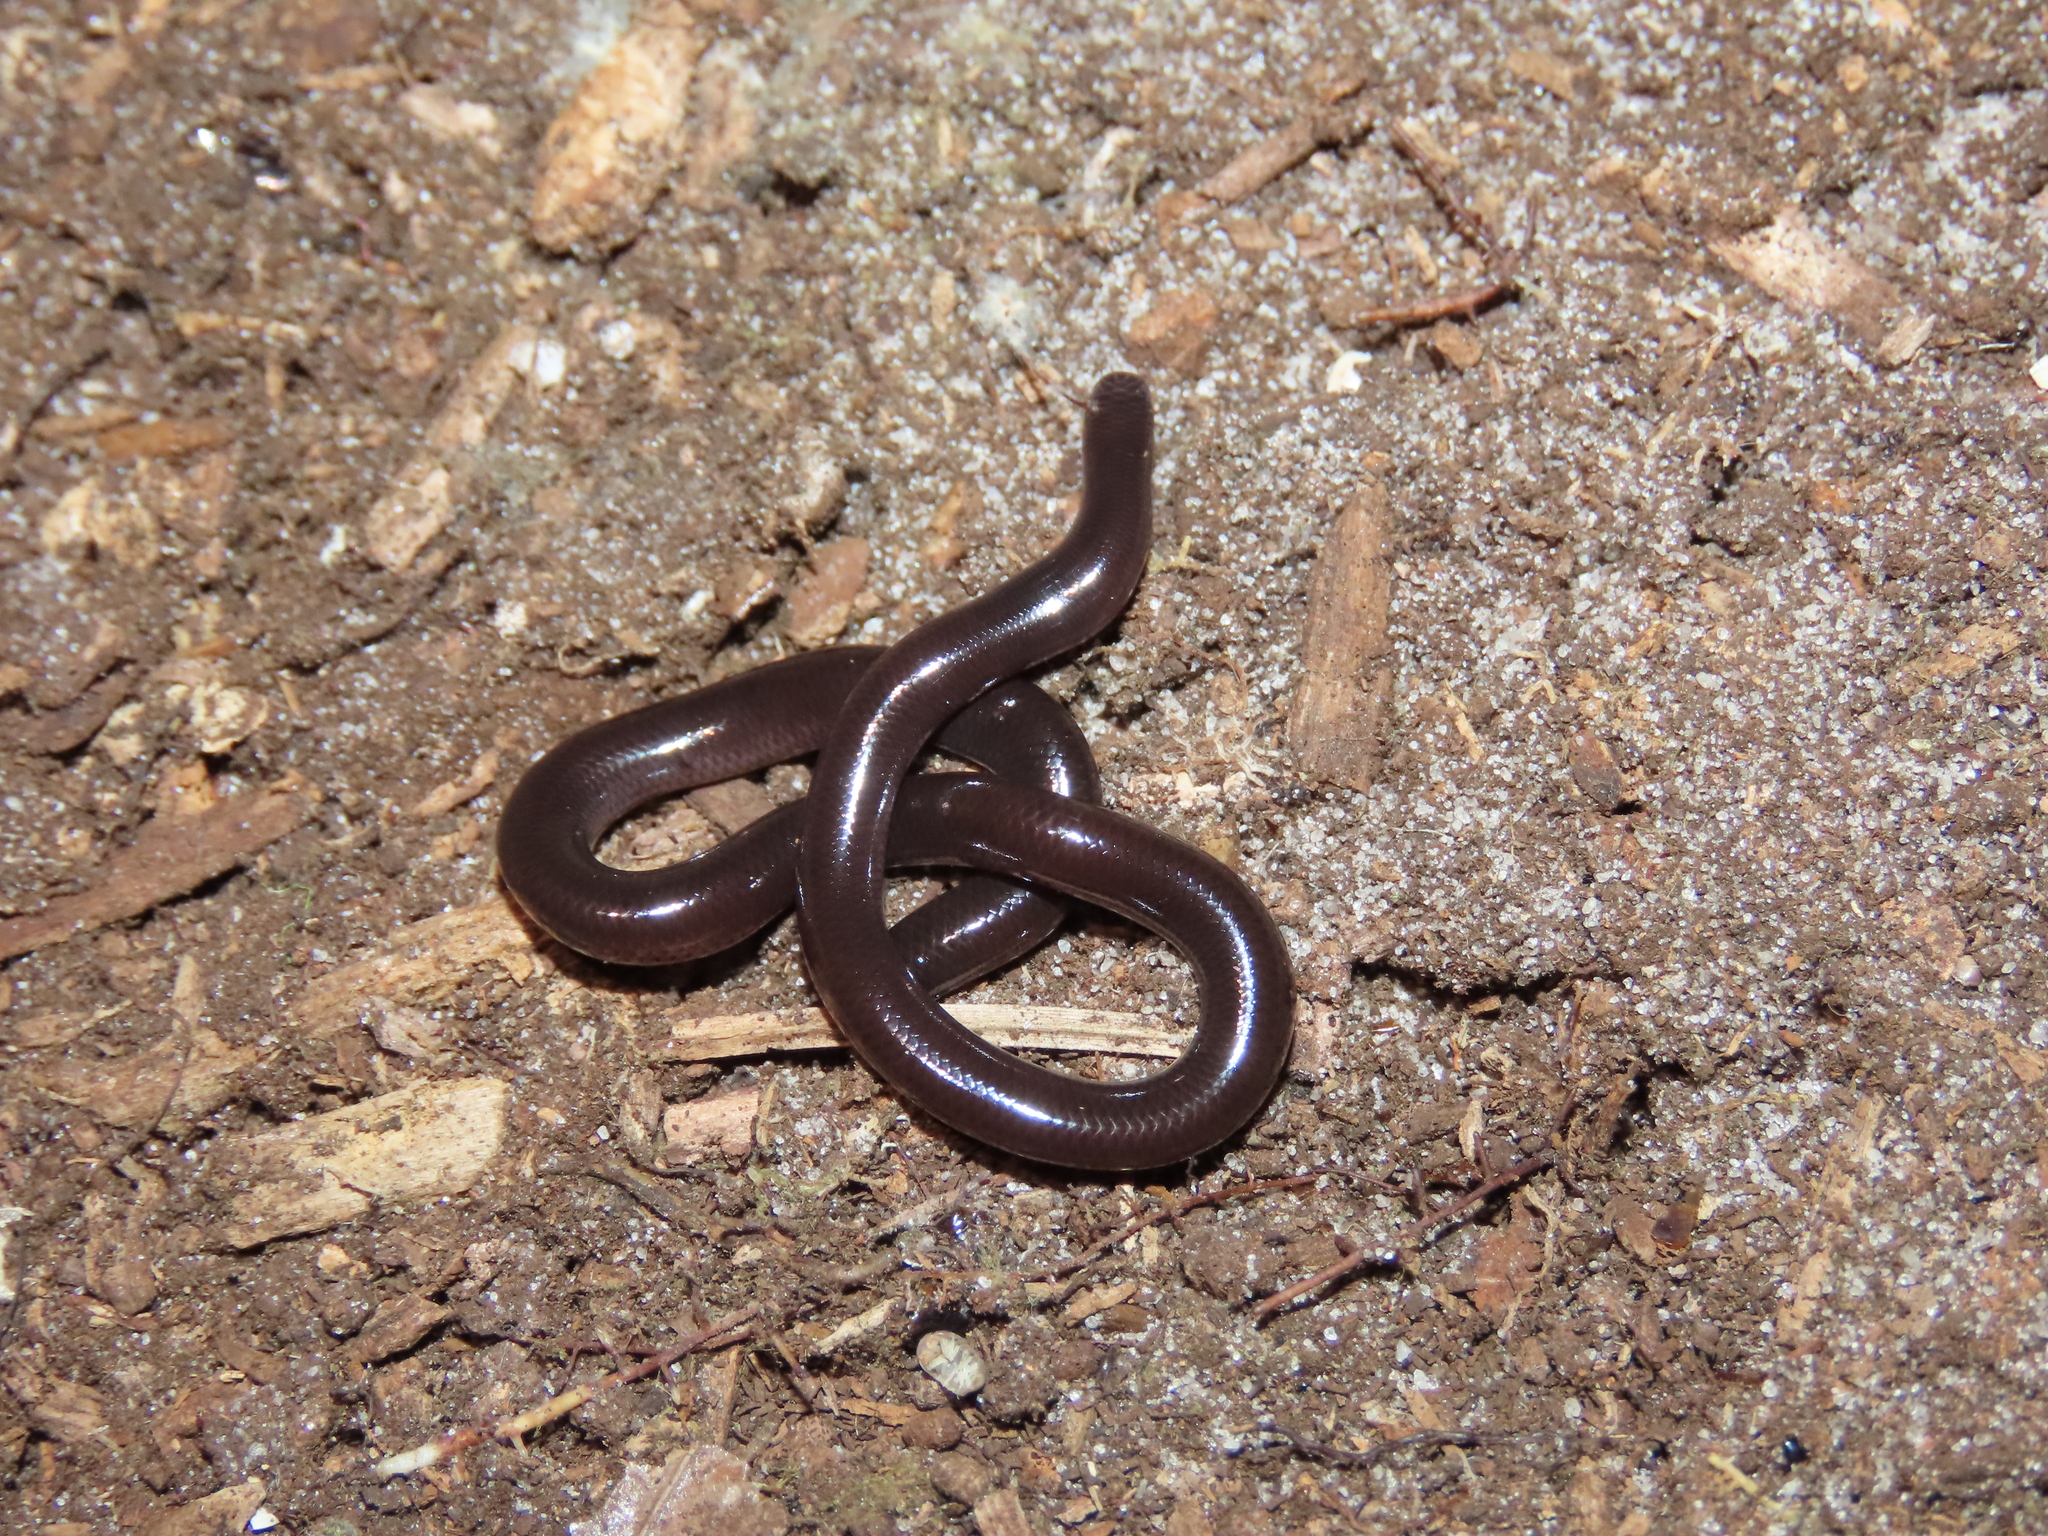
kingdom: Animalia
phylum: Chordata
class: Squamata
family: Typhlopidae
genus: Indotyphlops
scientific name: Indotyphlops braminus
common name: Brahminy blindsnake
